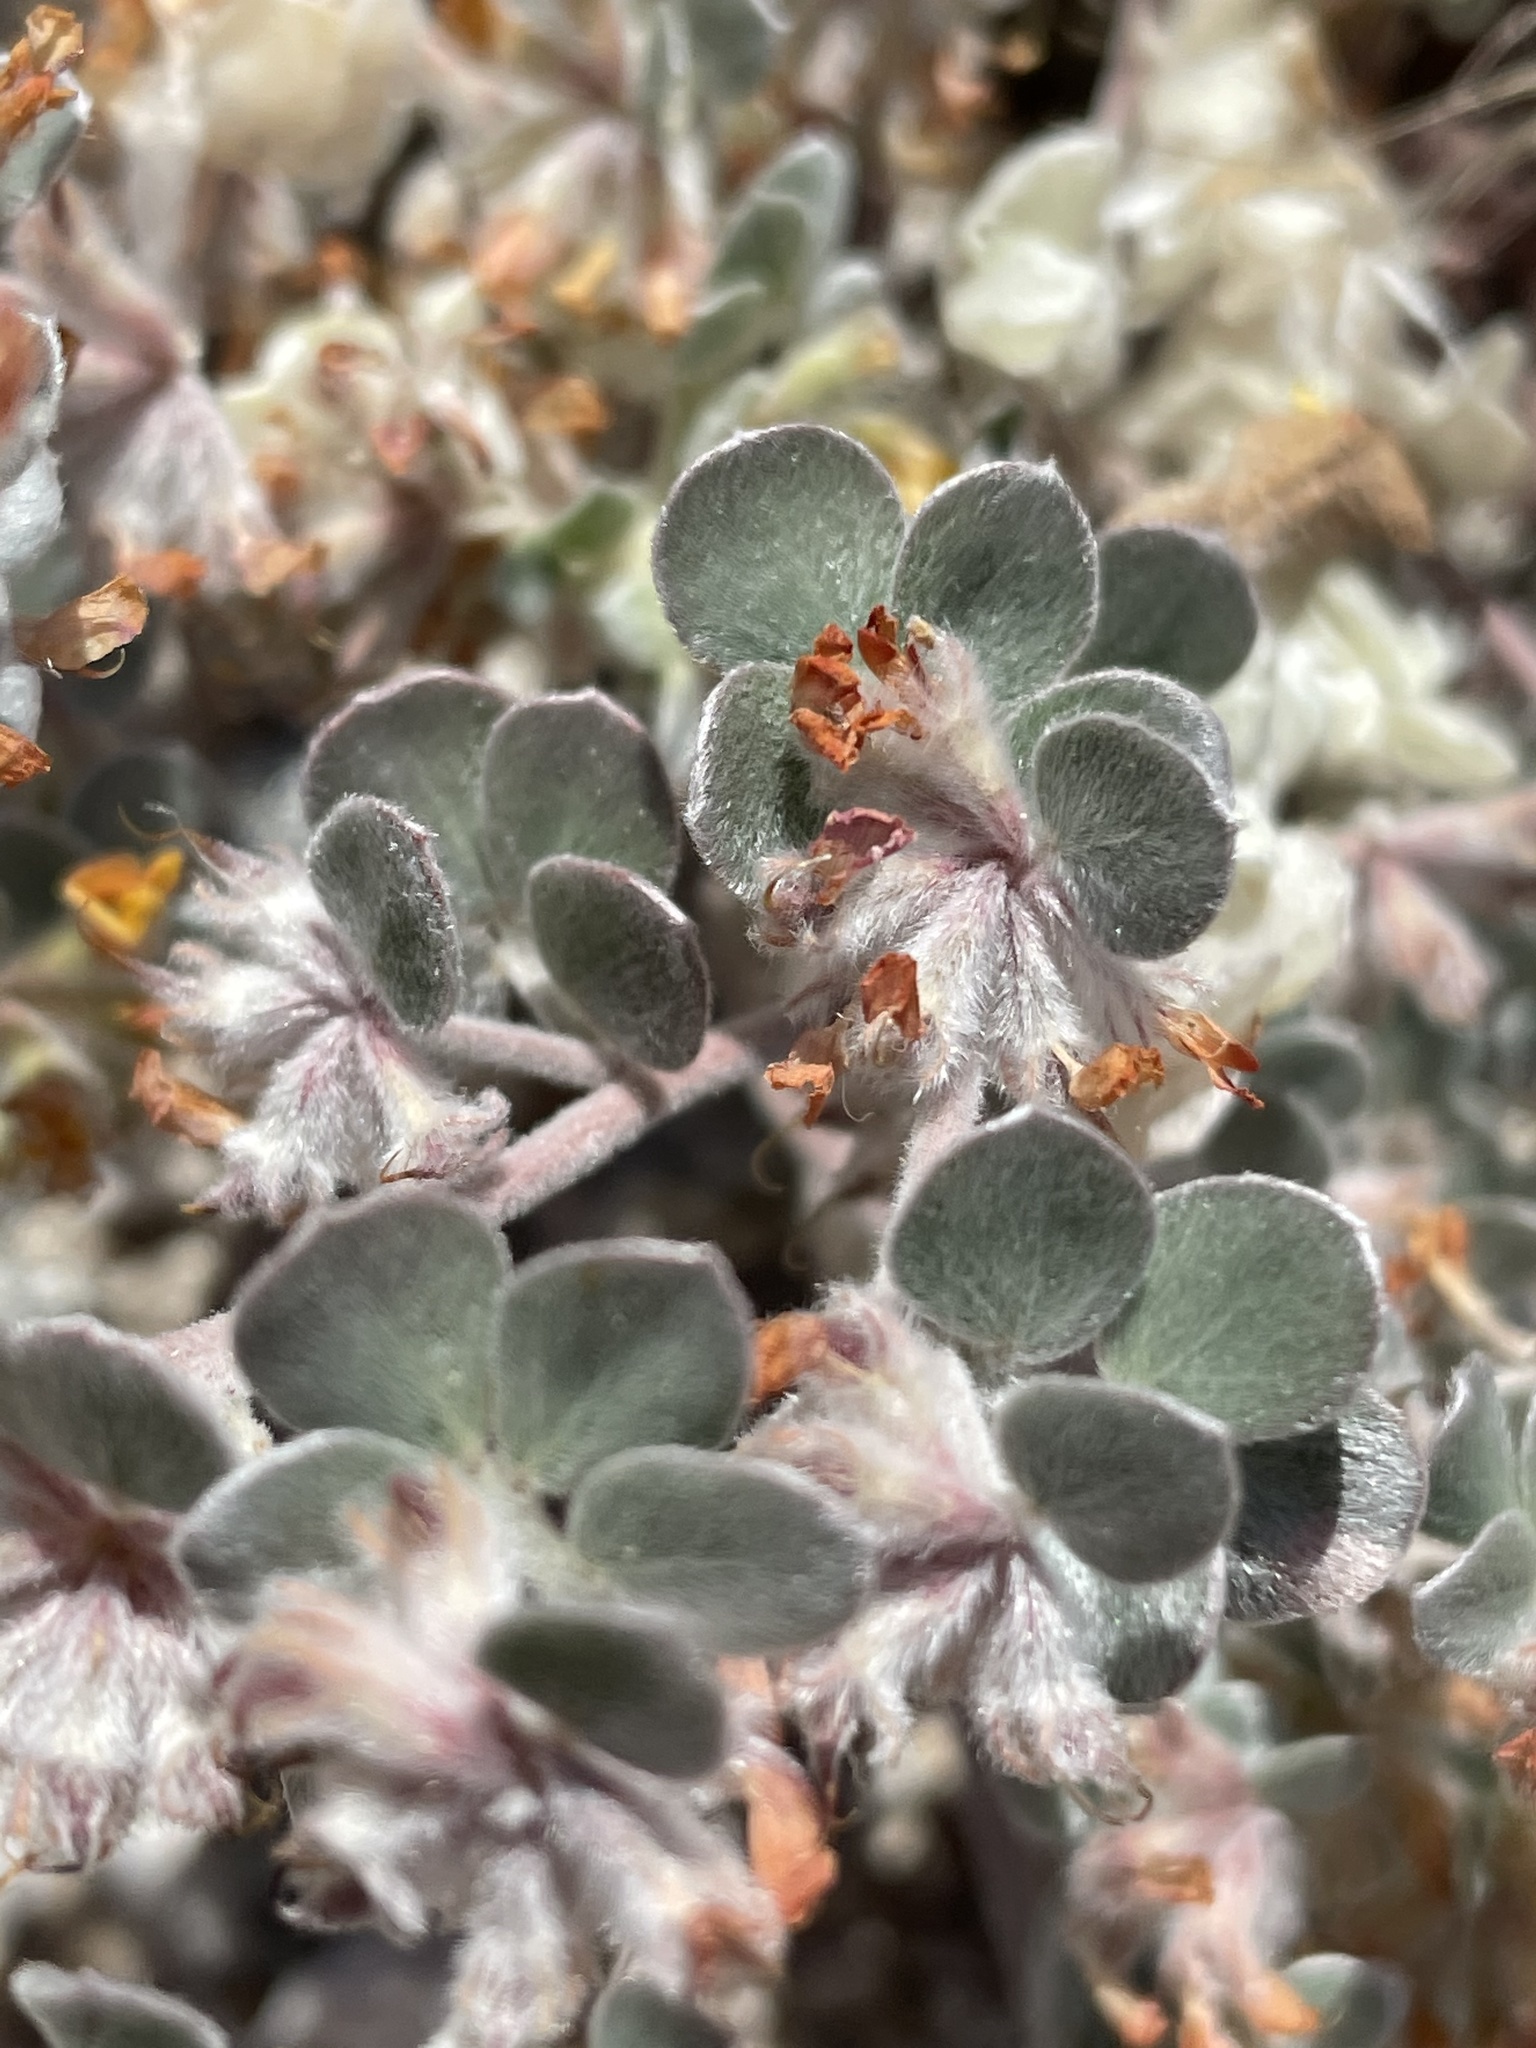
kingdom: Plantae
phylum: Tracheophyta
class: Magnoliopsida
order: Fabales
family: Fabaceae
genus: Acmispon
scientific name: Acmispon argophyllus
